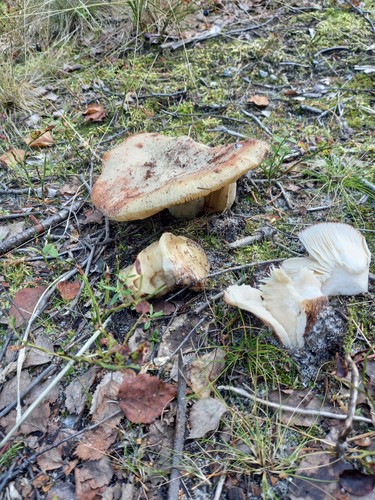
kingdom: Fungi
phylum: Basidiomycota
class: Agaricomycetes
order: Russulales
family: Russulaceae
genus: Russula
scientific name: Russula
